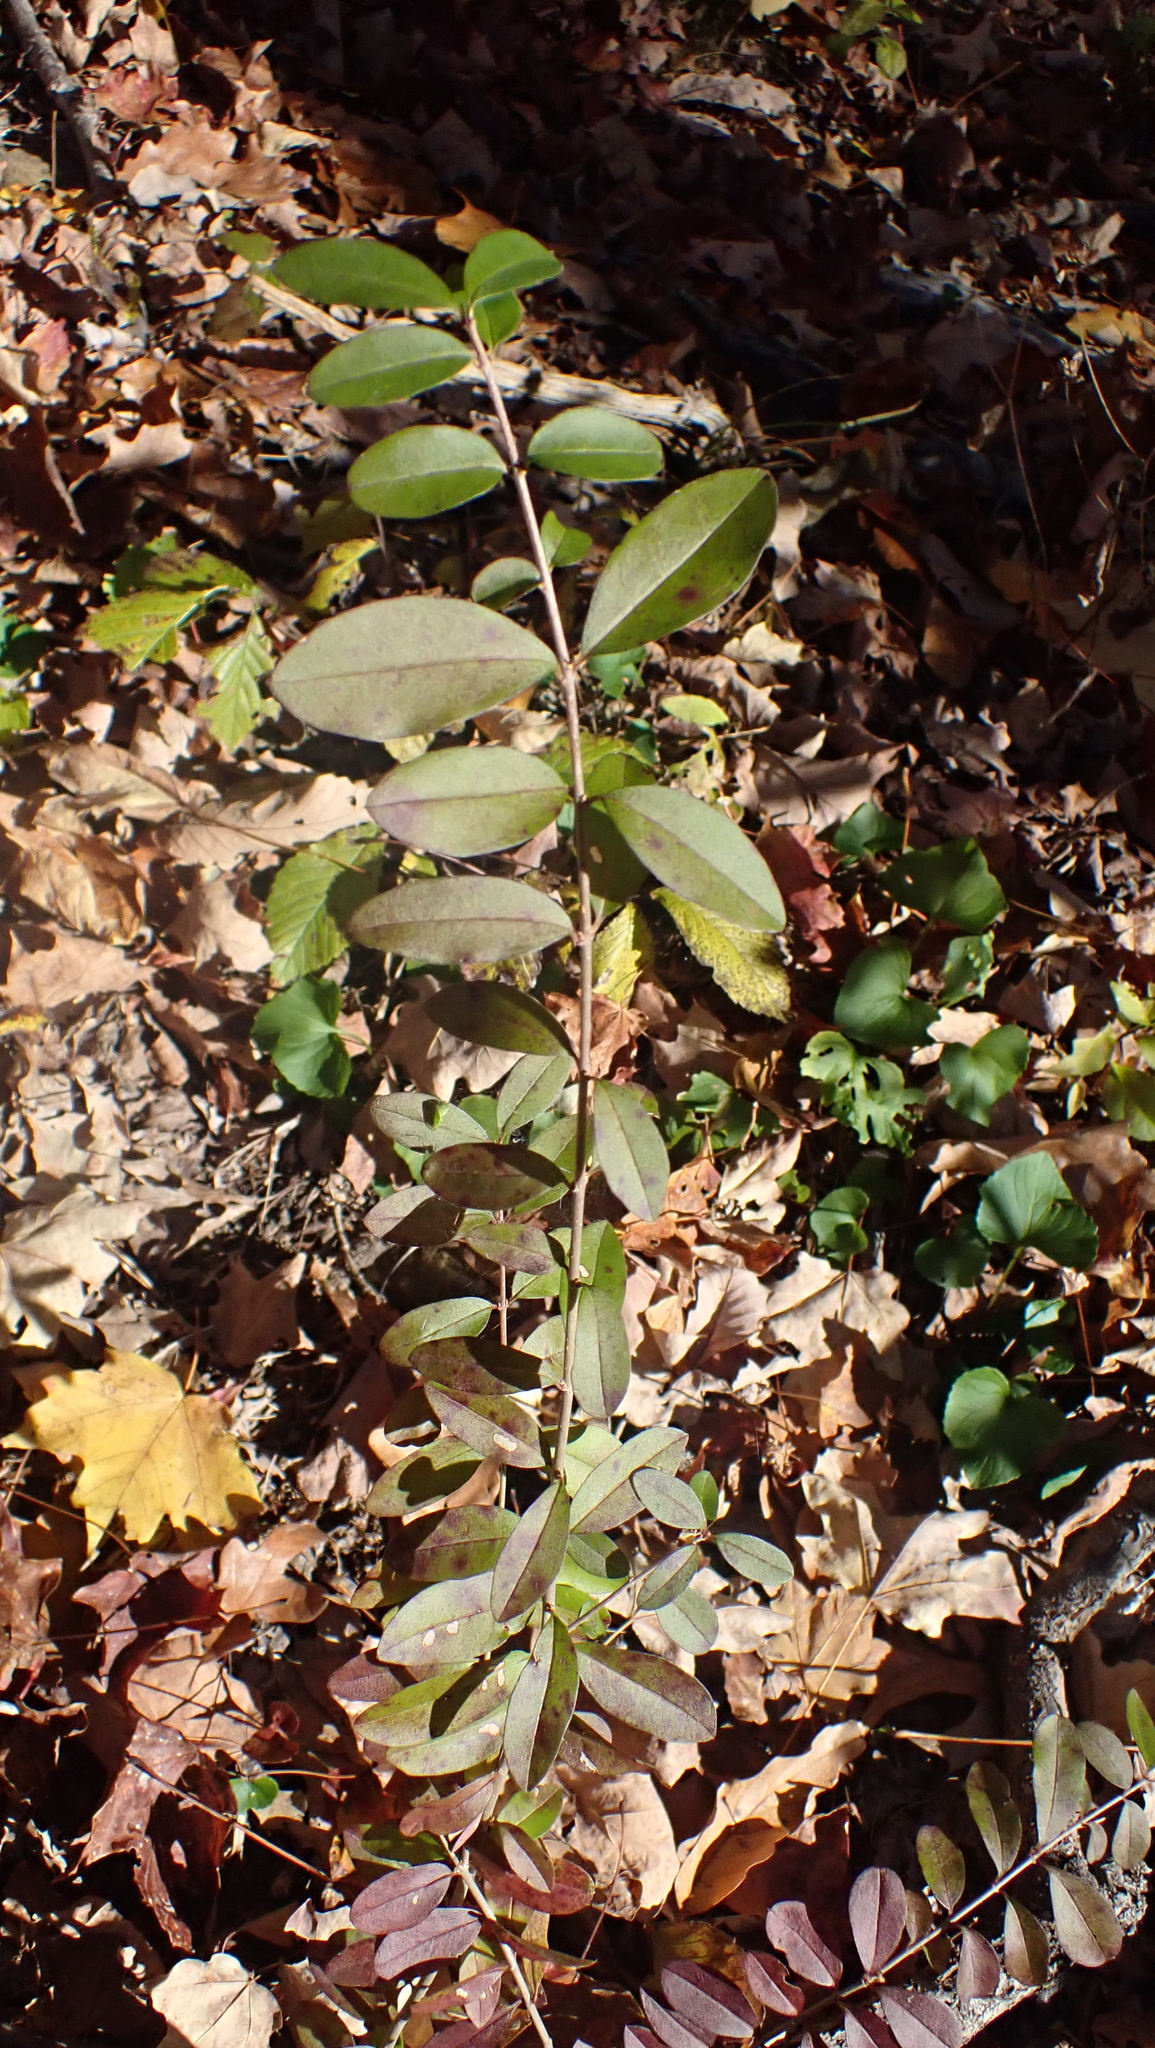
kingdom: Plantae
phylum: Tracheophyta
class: Magnoliopsida
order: Lamiales
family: Oleaceae
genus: Ligustrum
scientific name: Ligustrum
